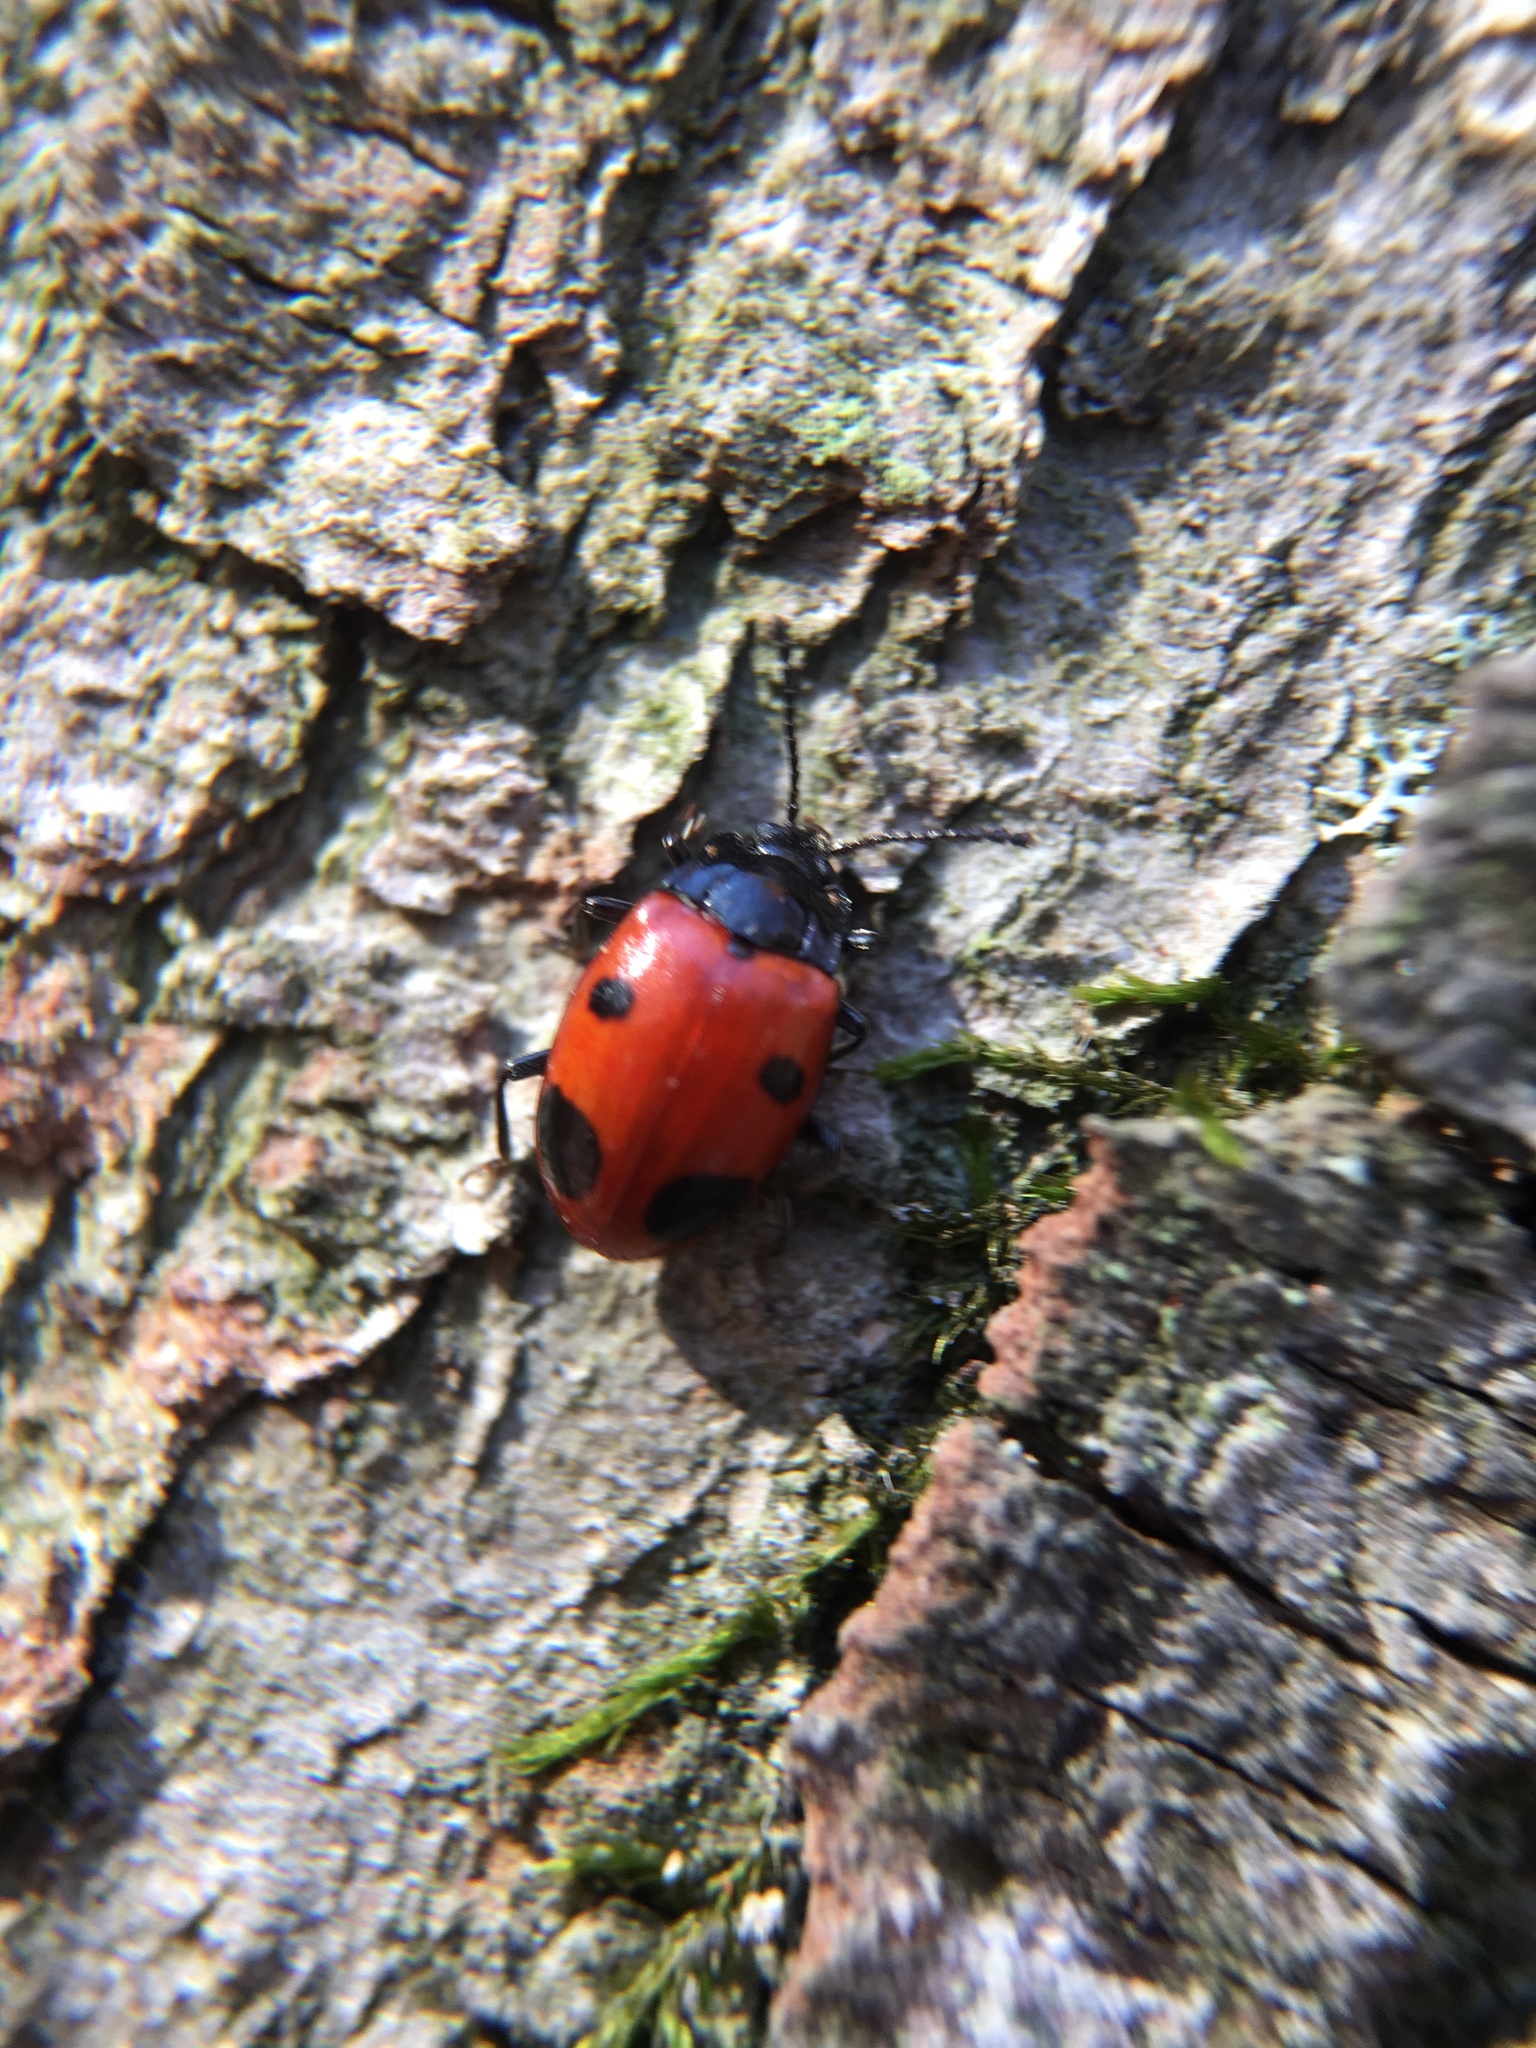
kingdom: Animalia
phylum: Arthropoda
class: Insecta
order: Coleoptera
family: Endomychidae
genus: Endomychus
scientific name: Endomychus biguttatus
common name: Handsome fungus beetle
